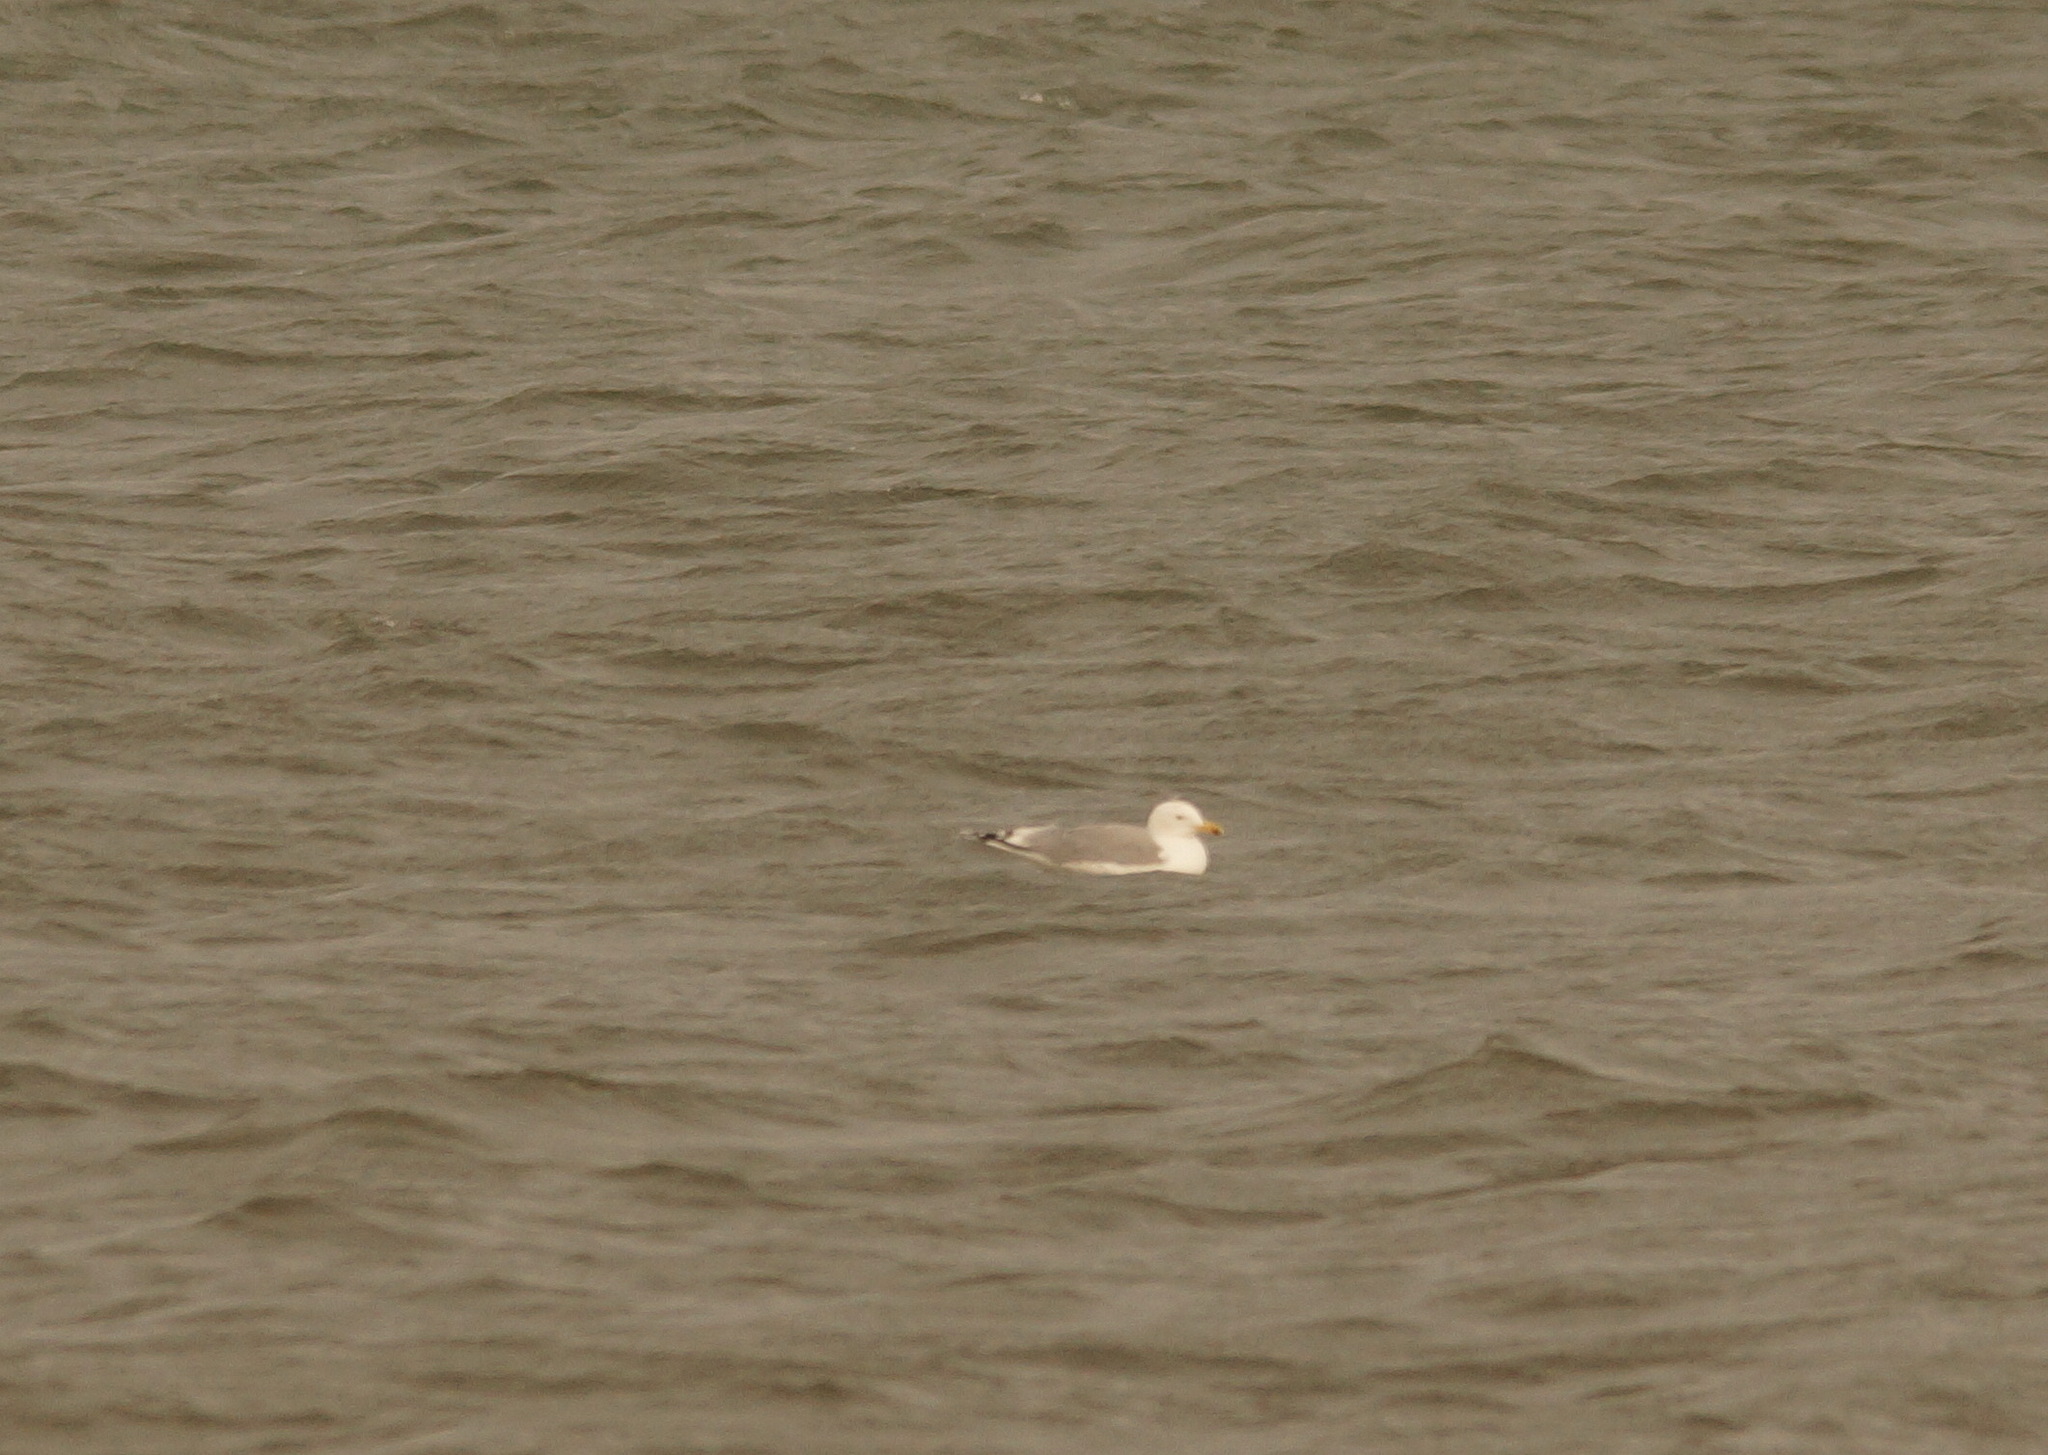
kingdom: Animalia
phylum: Chordata
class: Aves
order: Charadriiformes
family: Laridae
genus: Larus
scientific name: Larus michahellis
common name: Yellow-legged gull
